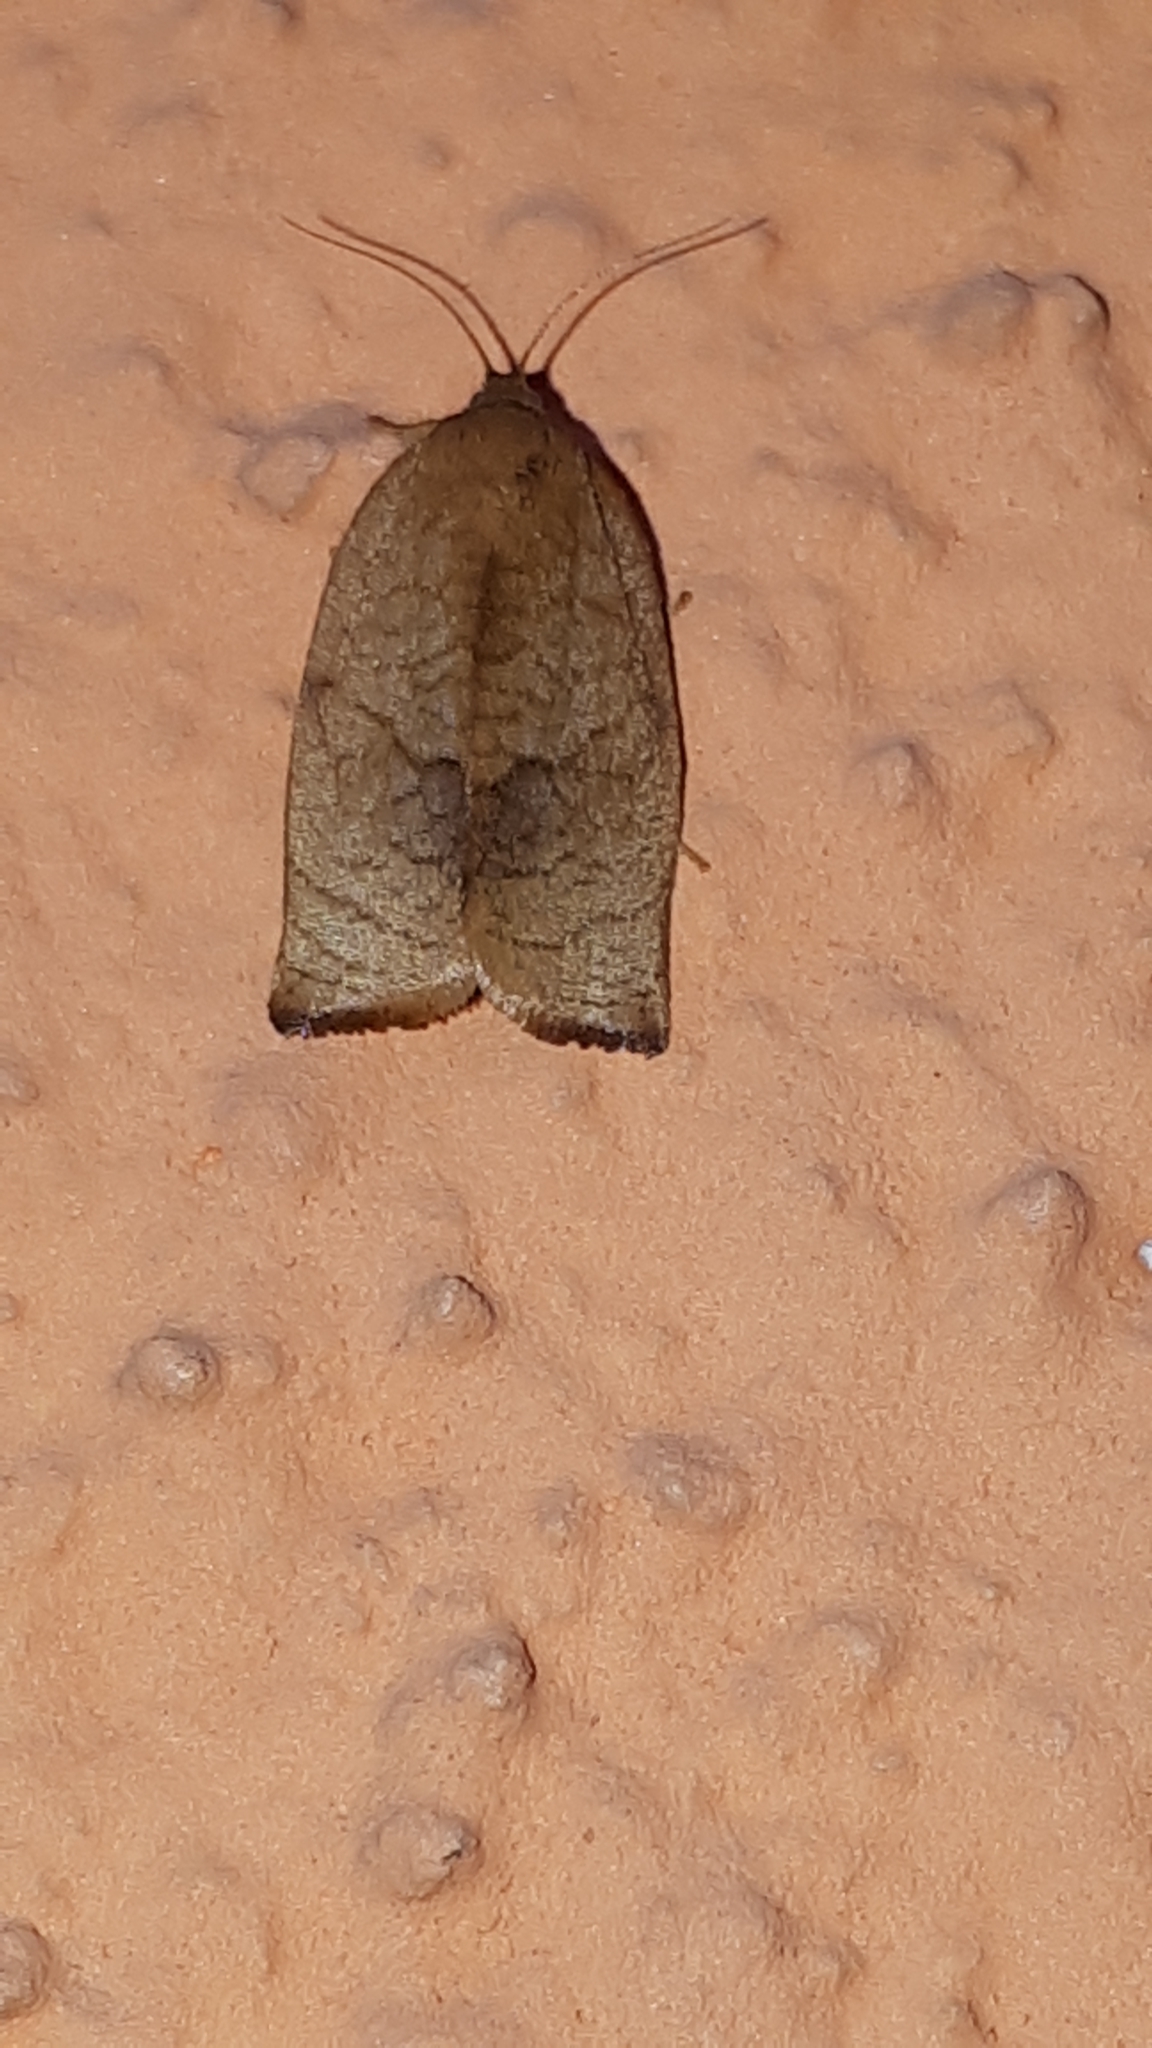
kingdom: Animalia
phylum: Arthropoda
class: Insecta
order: Lepidoptera
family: Tortricidae
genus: Cacoecimorpha
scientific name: Cacoecimorpha pronubana
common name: Carnation tortrix
